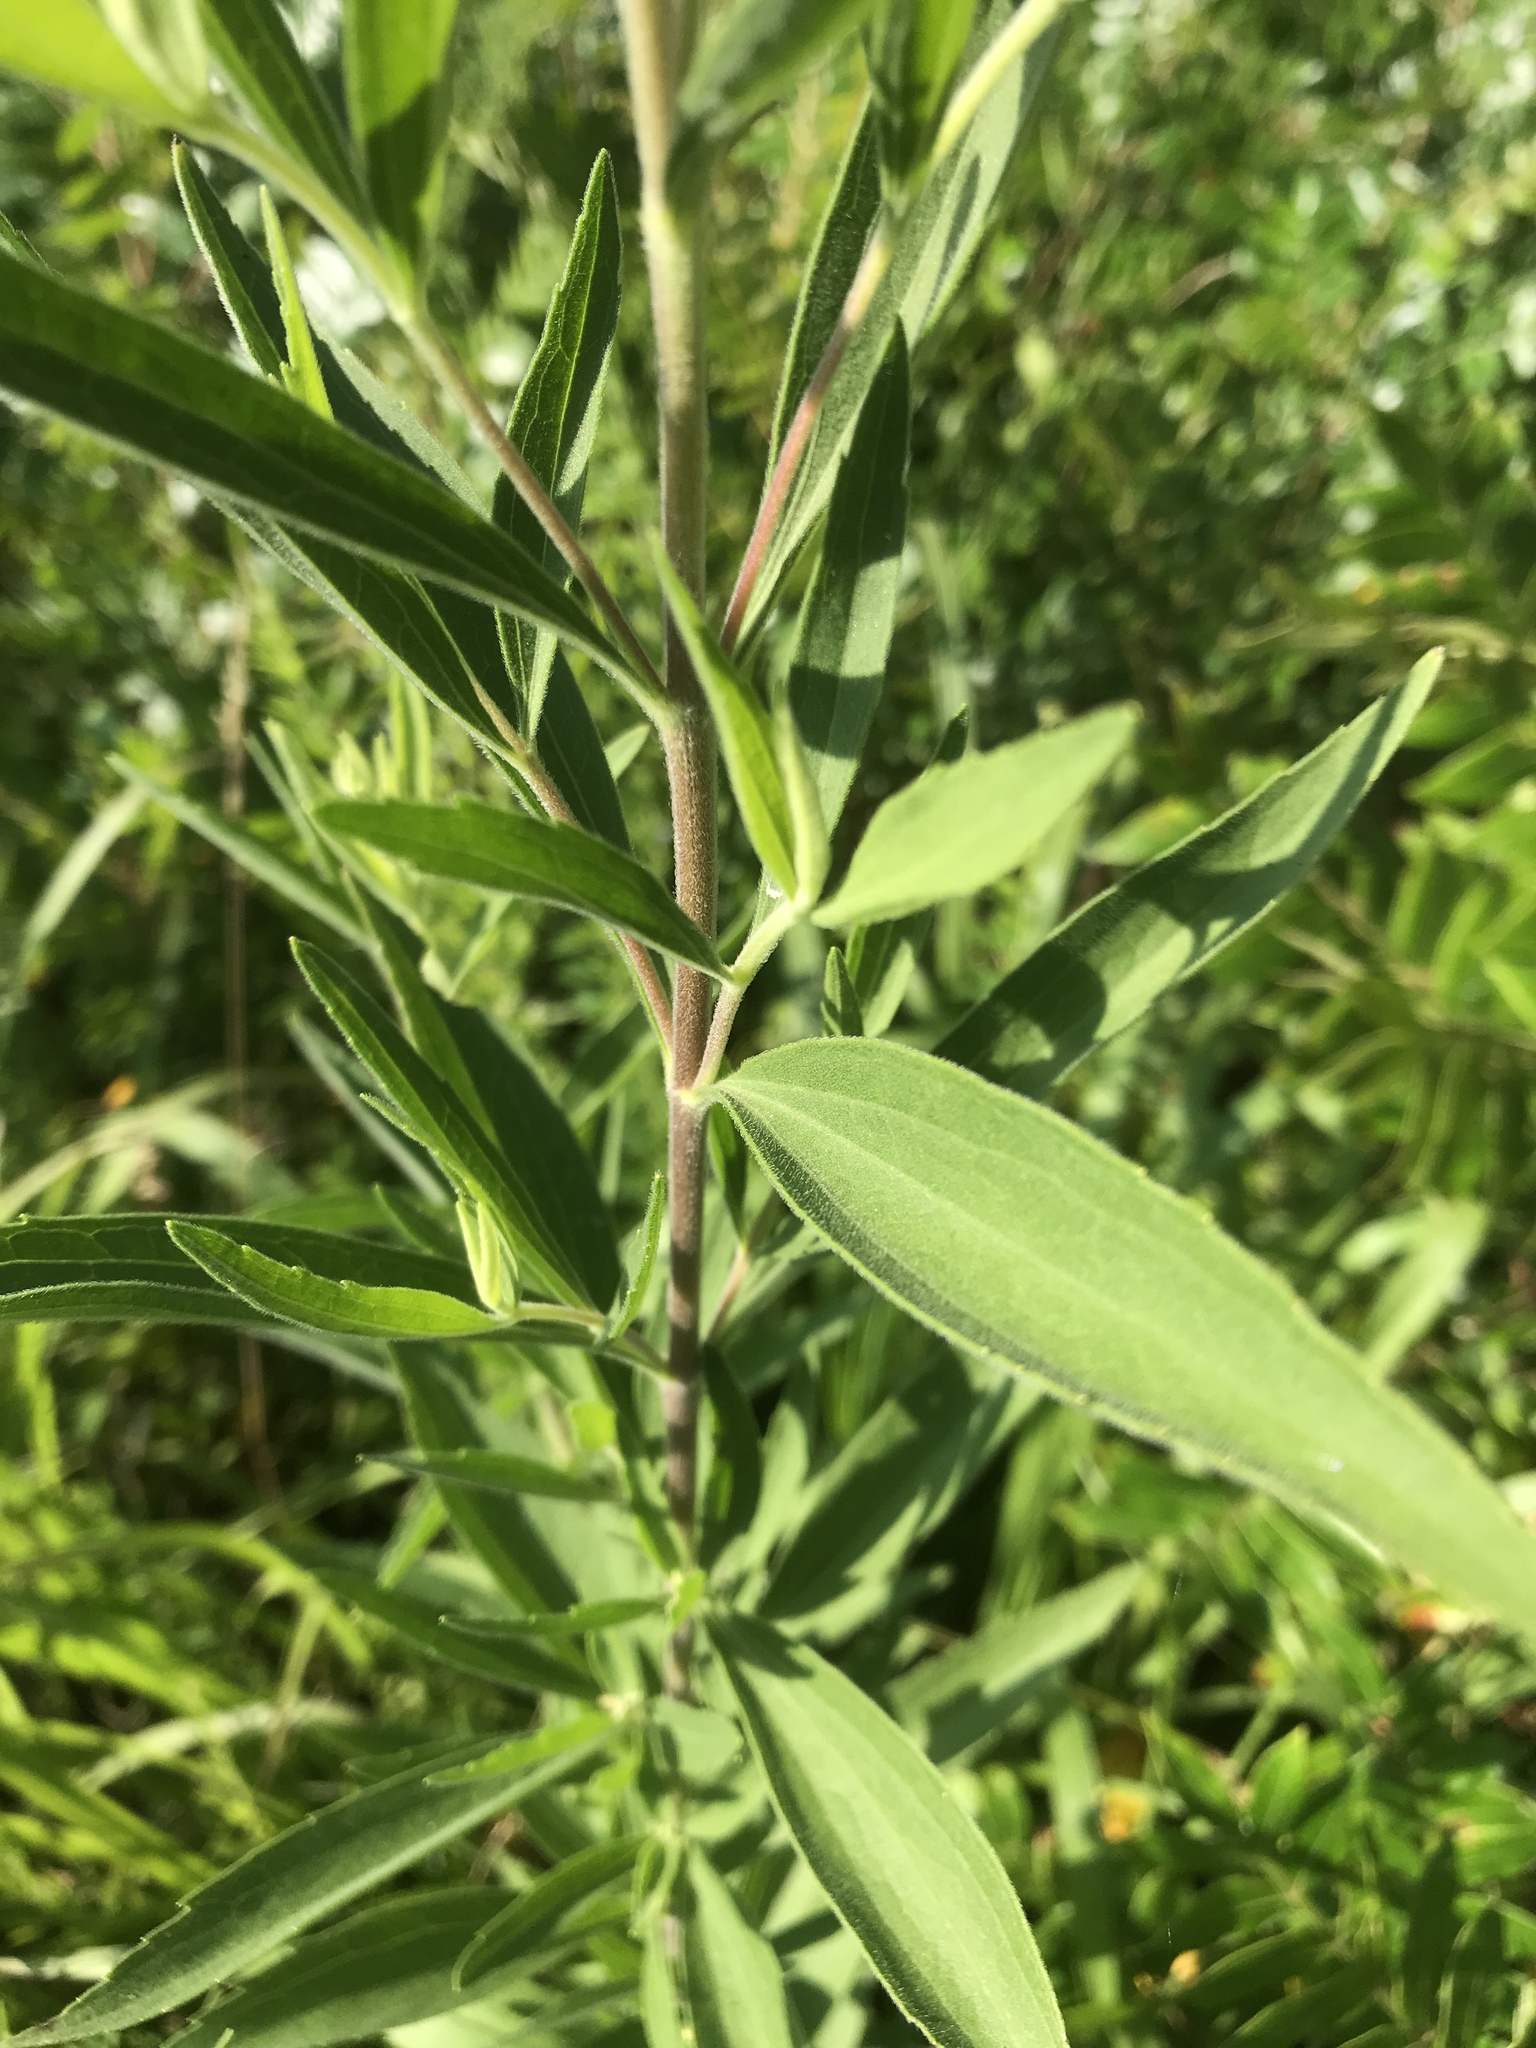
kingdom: Plantae
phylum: Tracheophyta
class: Magnoliopsida
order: Asterales
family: Asteraceae
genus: Eupatorium
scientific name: Eupatorium altissimum
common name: Tall thoroughwort
